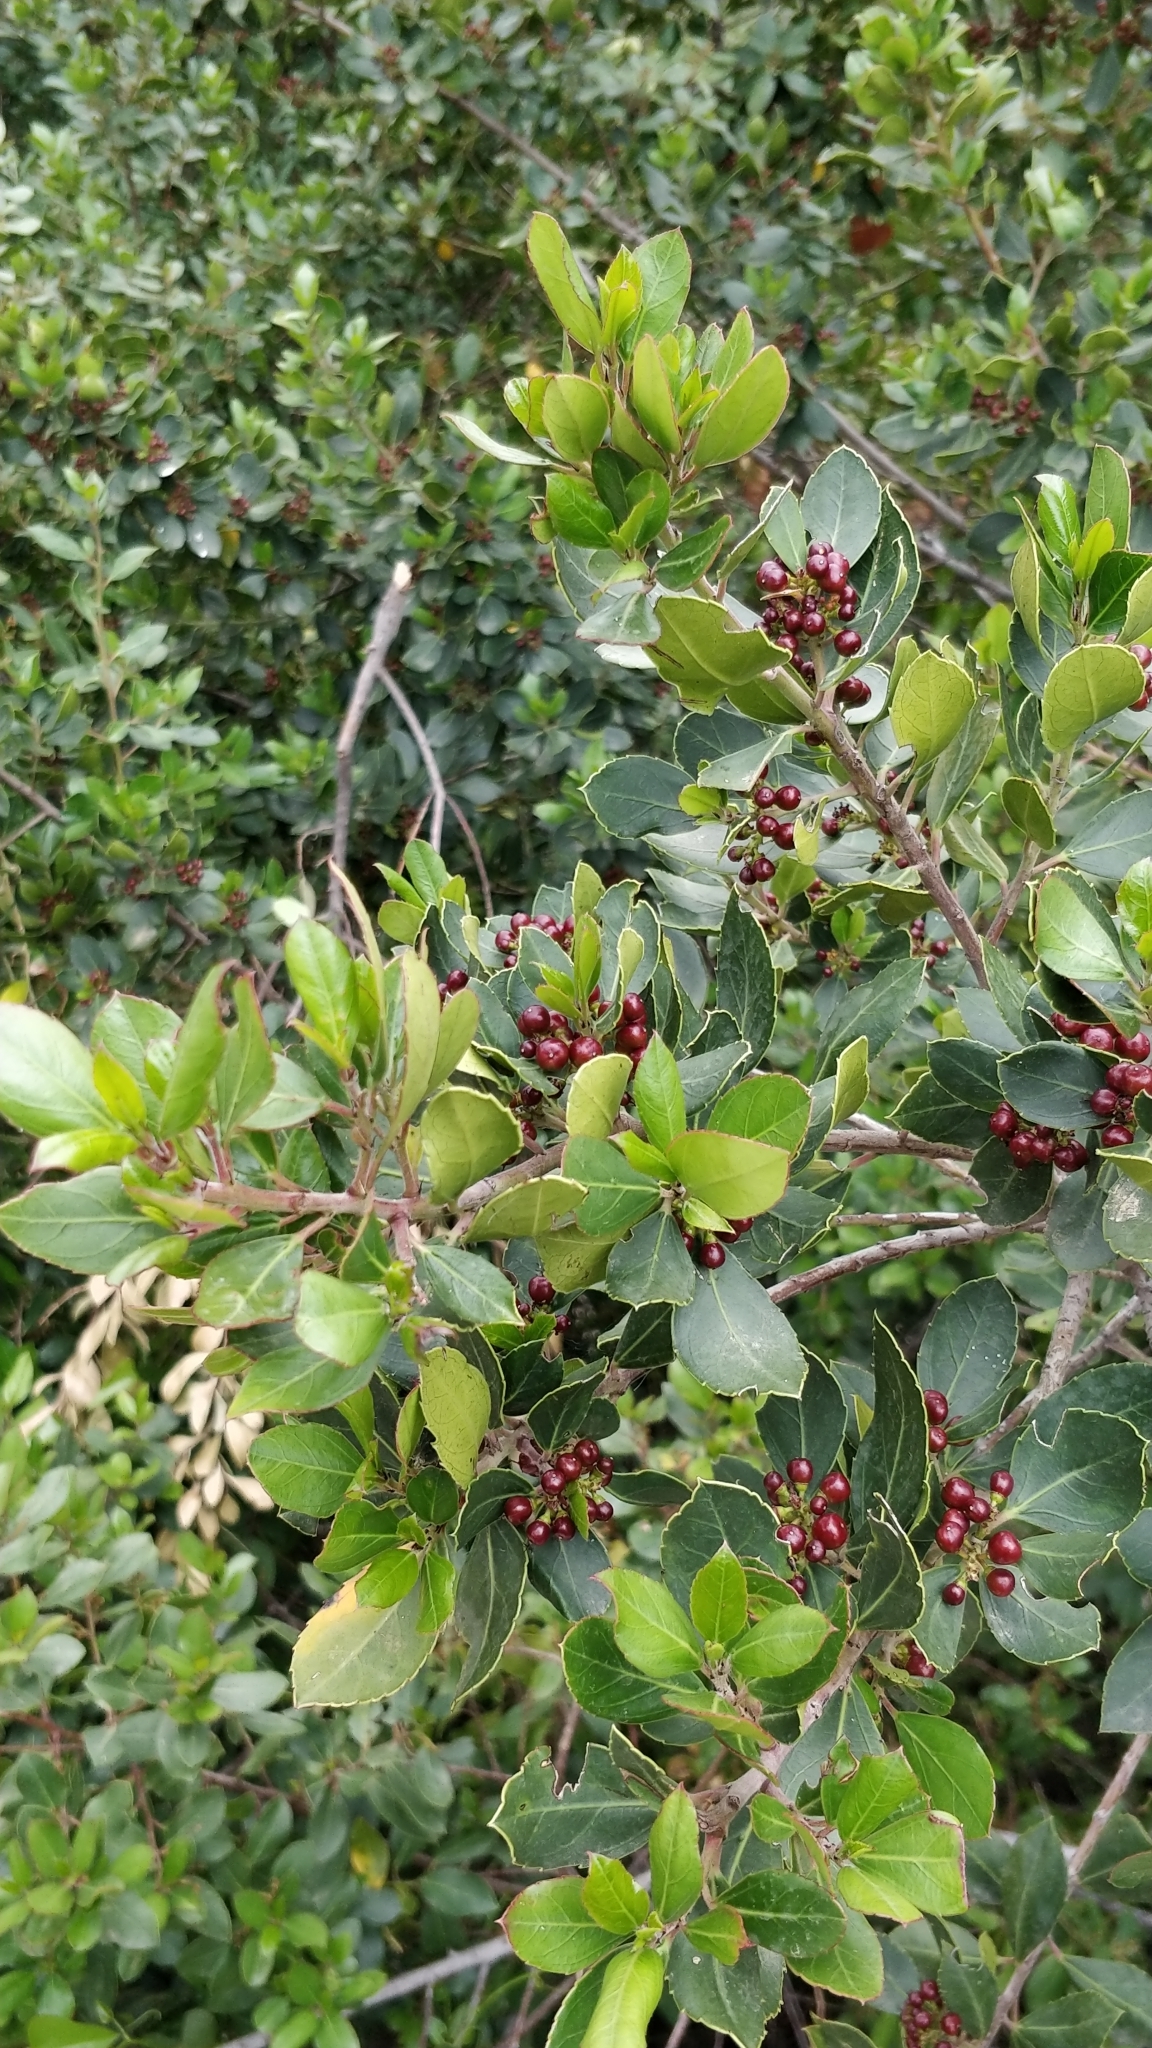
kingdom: Plantae
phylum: Tracheophyta
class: Magnoliopsida
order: Rosales
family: Rhamnaceae
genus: Rhamnus
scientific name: Rhamnus alaternus
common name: Mediterranean buckthorn
